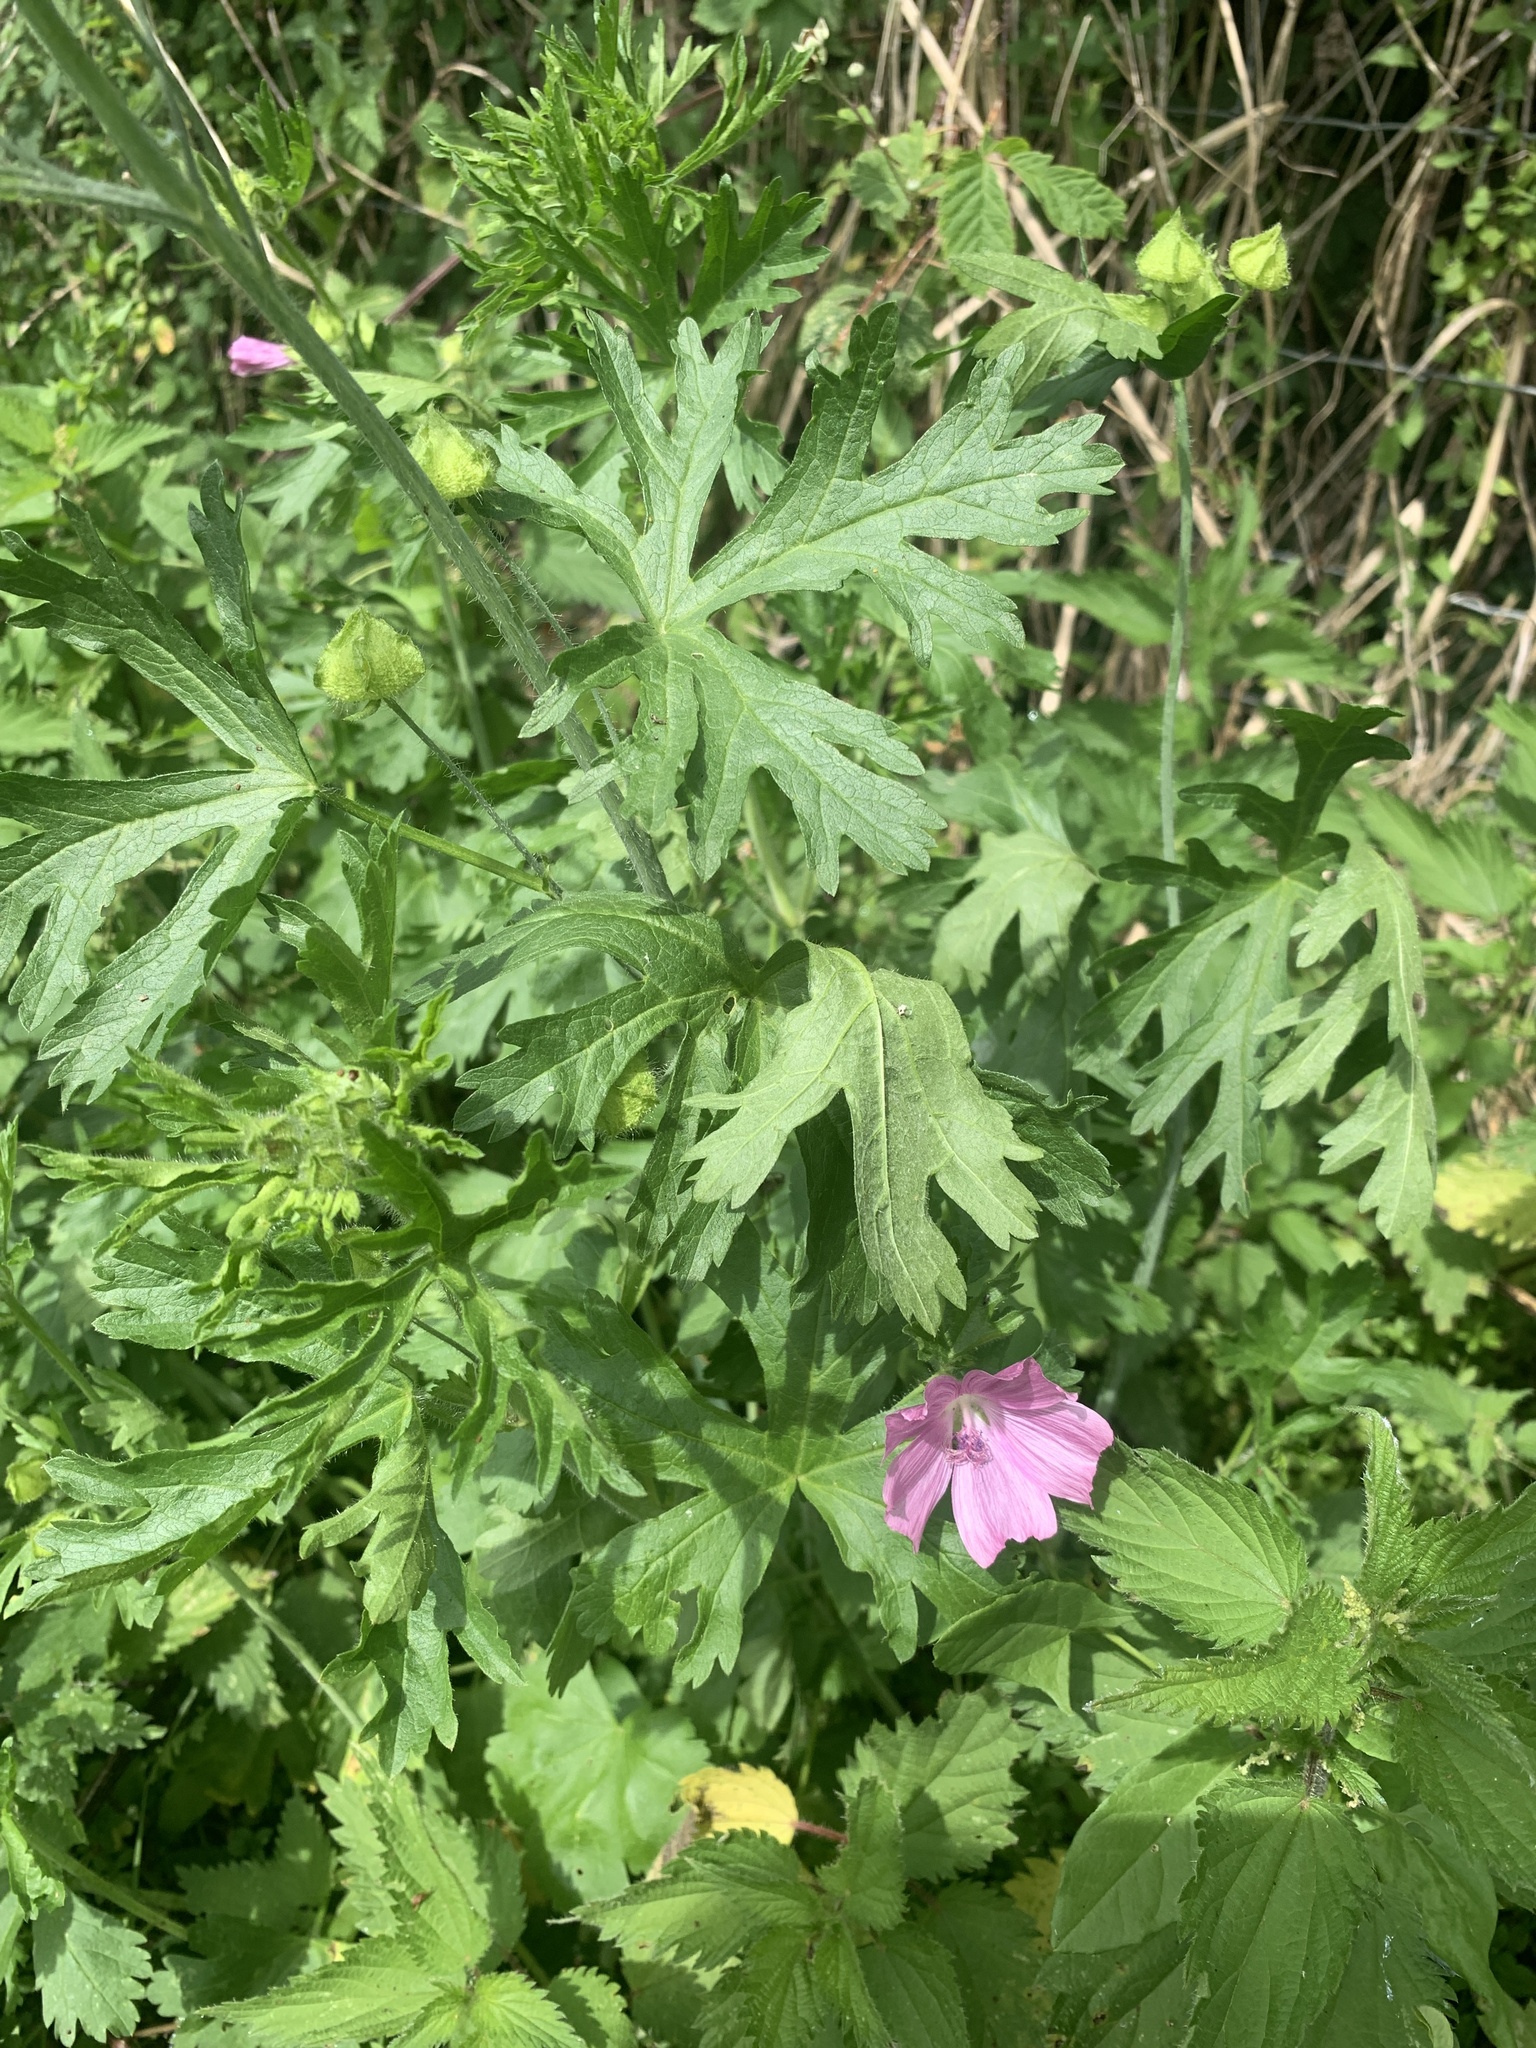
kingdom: Plantae
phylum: Tracheophyta
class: Magnoliopsida
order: Malvales
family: Malvaceae
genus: Malva
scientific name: Malva moschata
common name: Musk mallow
